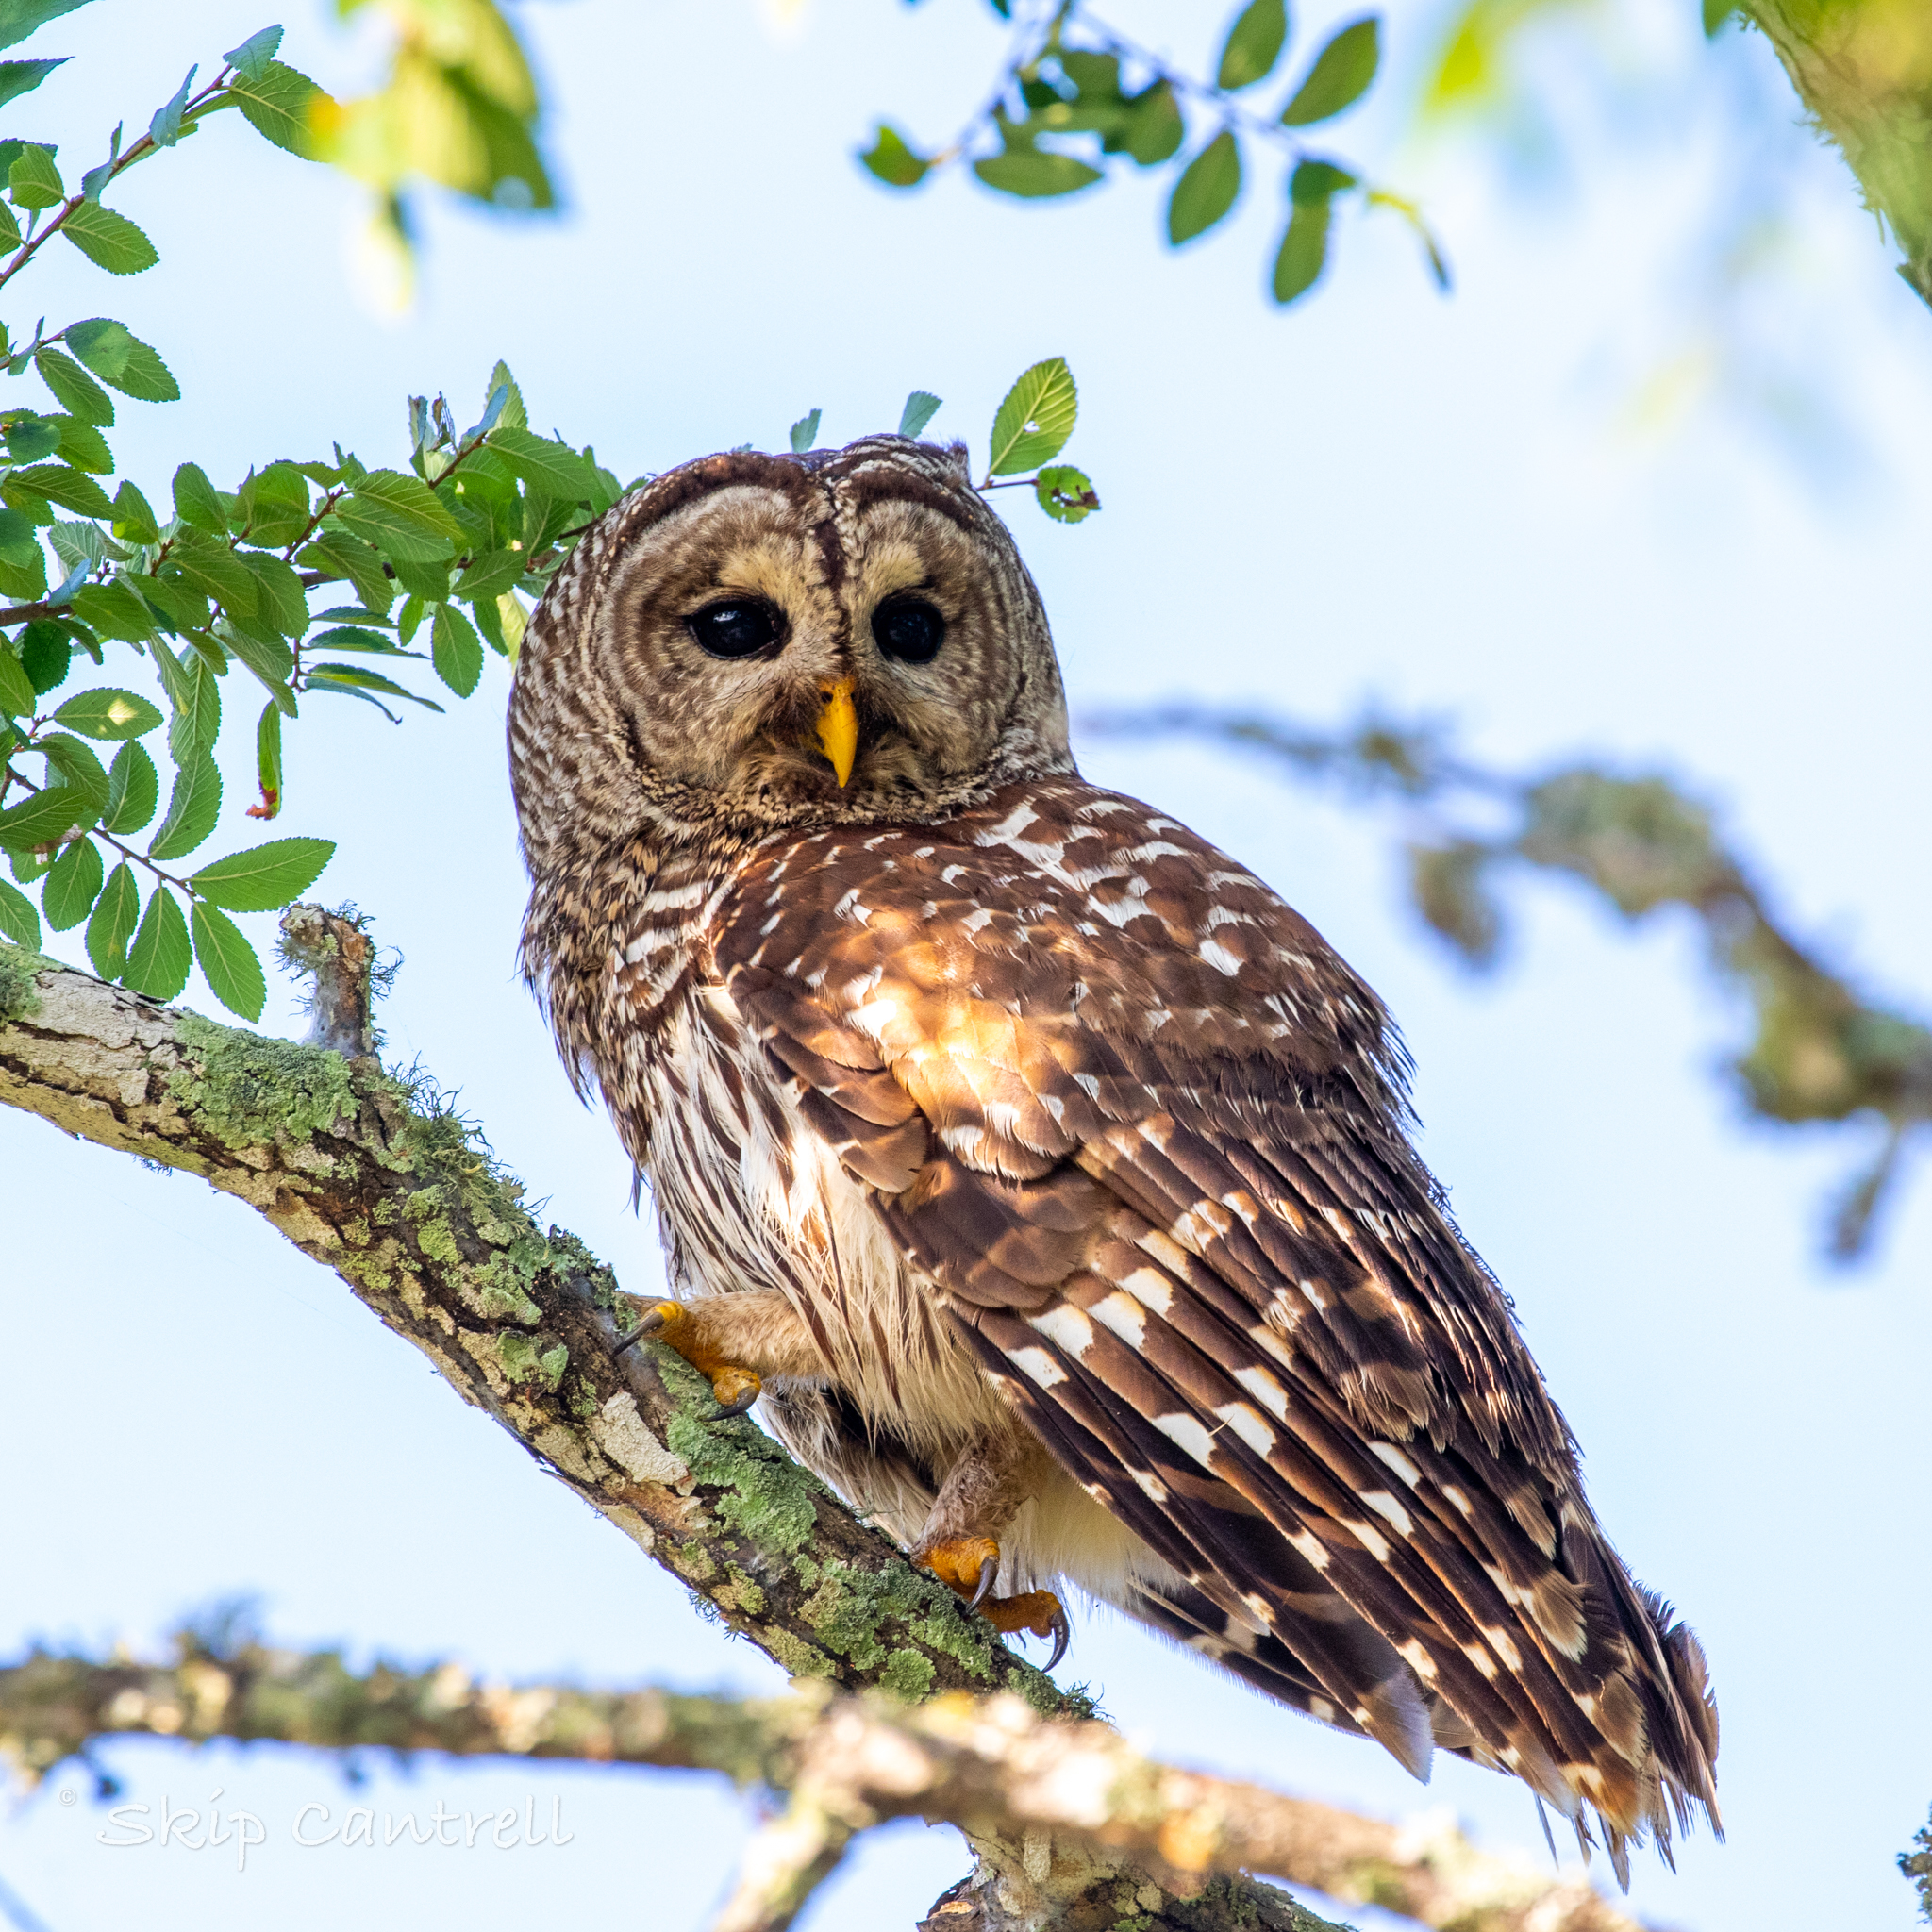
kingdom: Animalia
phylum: Chordata
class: Aves
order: Strigiformes
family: Strigidae
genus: Strix
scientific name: Strix varia
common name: Barred owl
